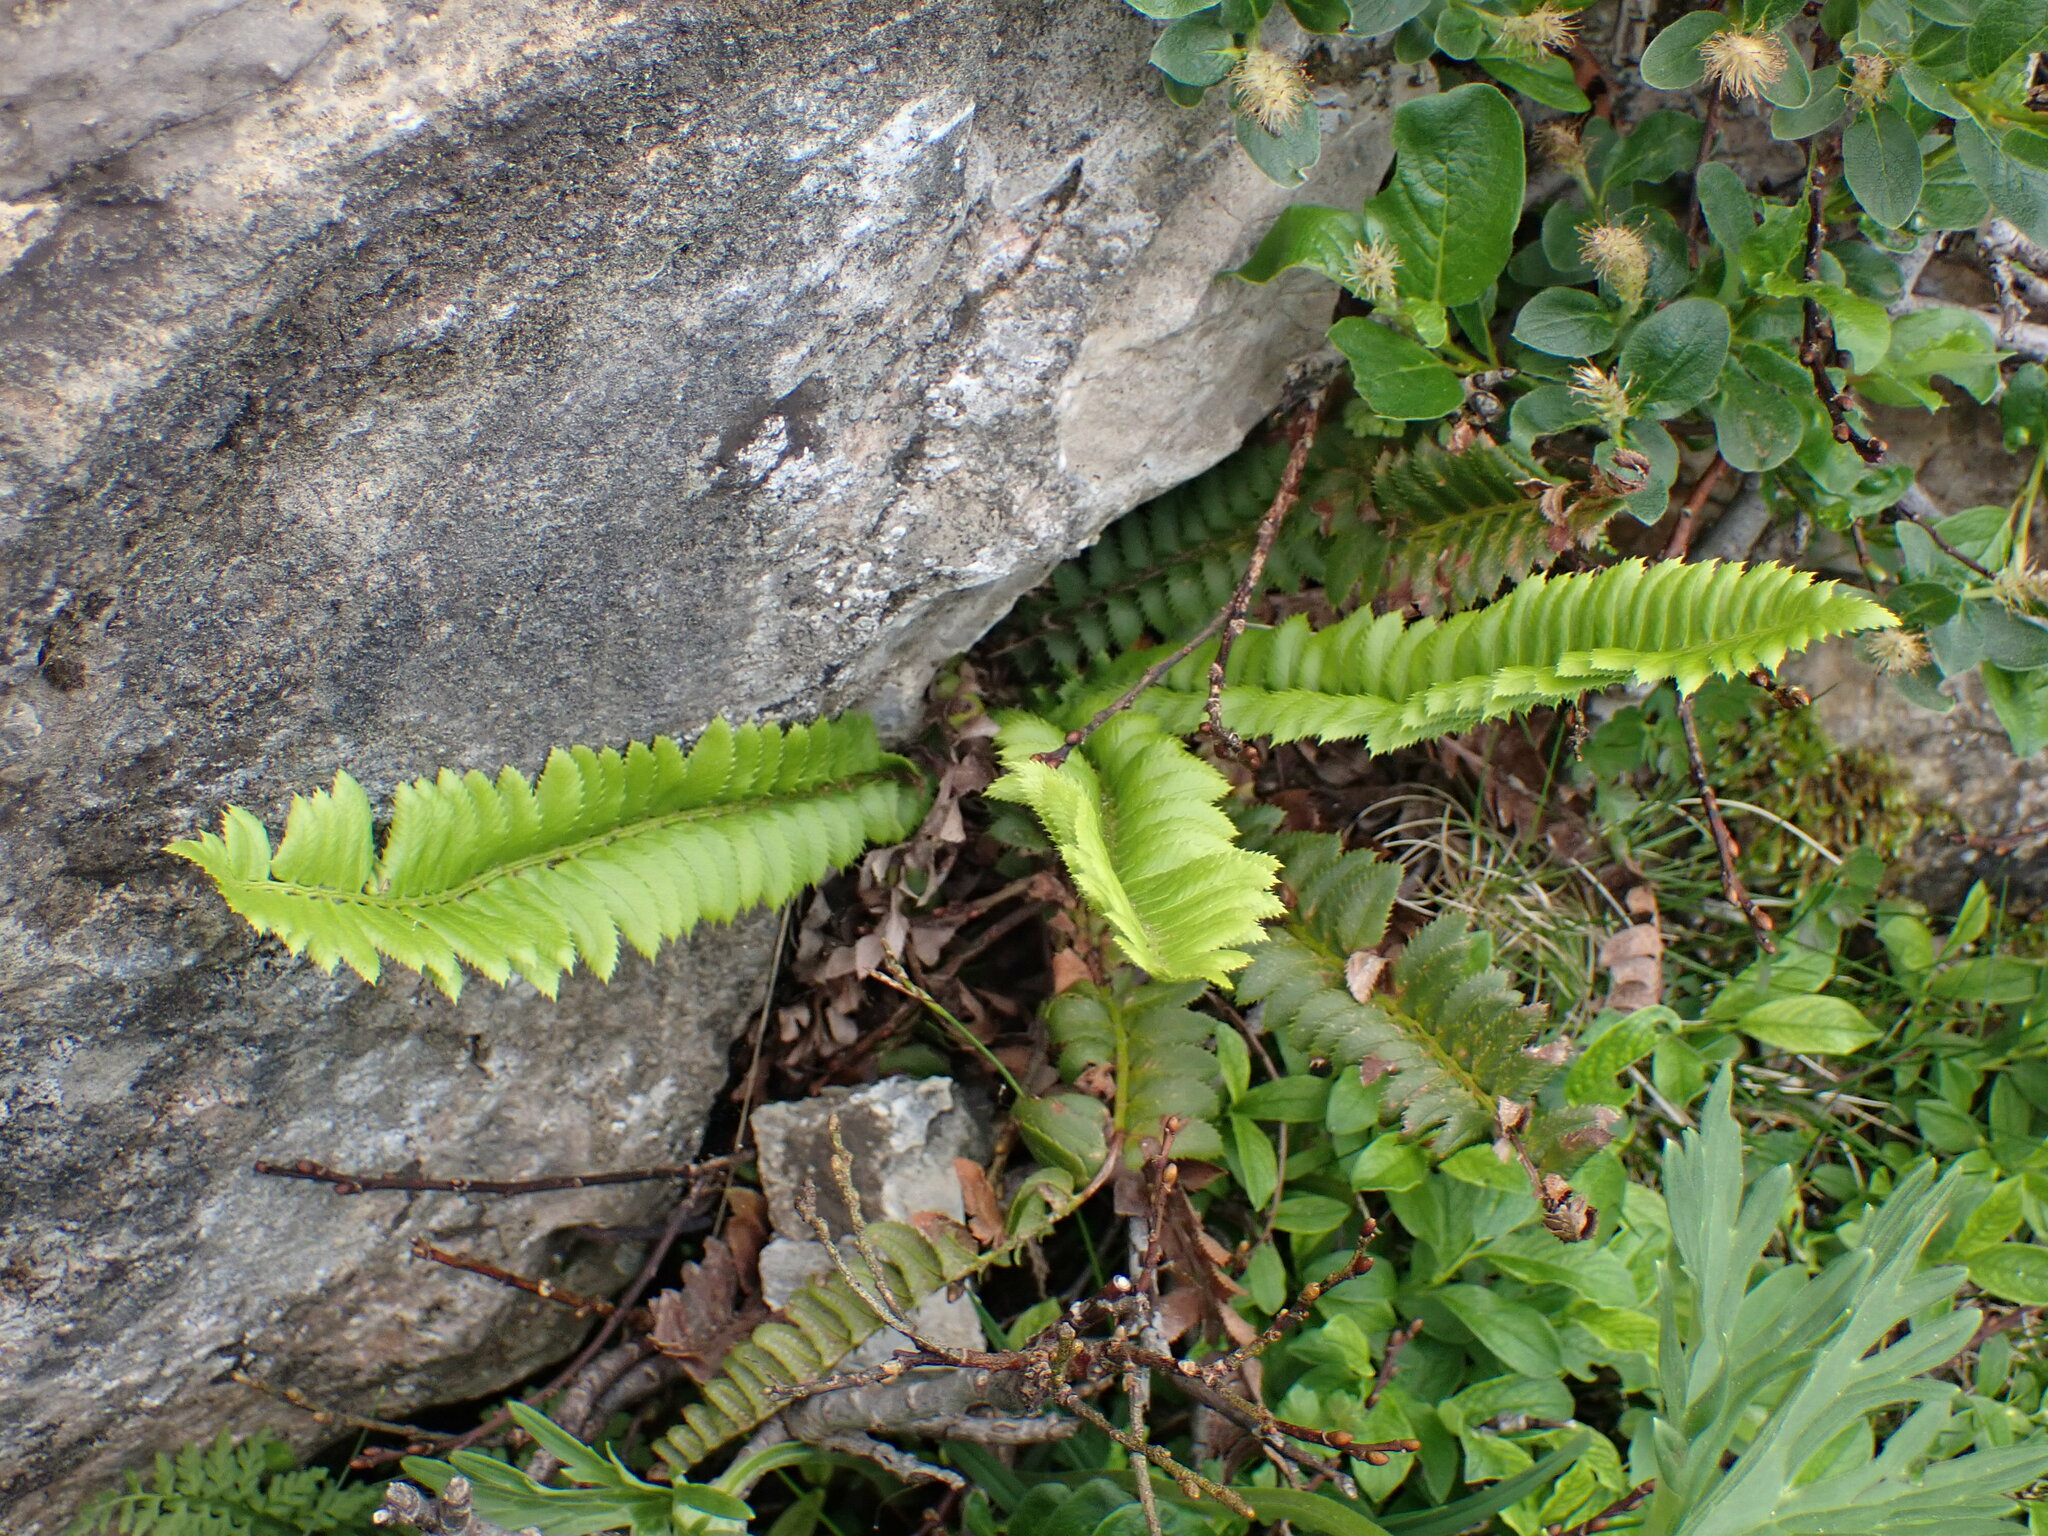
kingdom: Plantae
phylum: Tracheophyta
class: Polypodiopsida
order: Polypodiales
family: Dryopteridaceae
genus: Polystichum
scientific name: Polystichum lonchitis
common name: Holly fern
